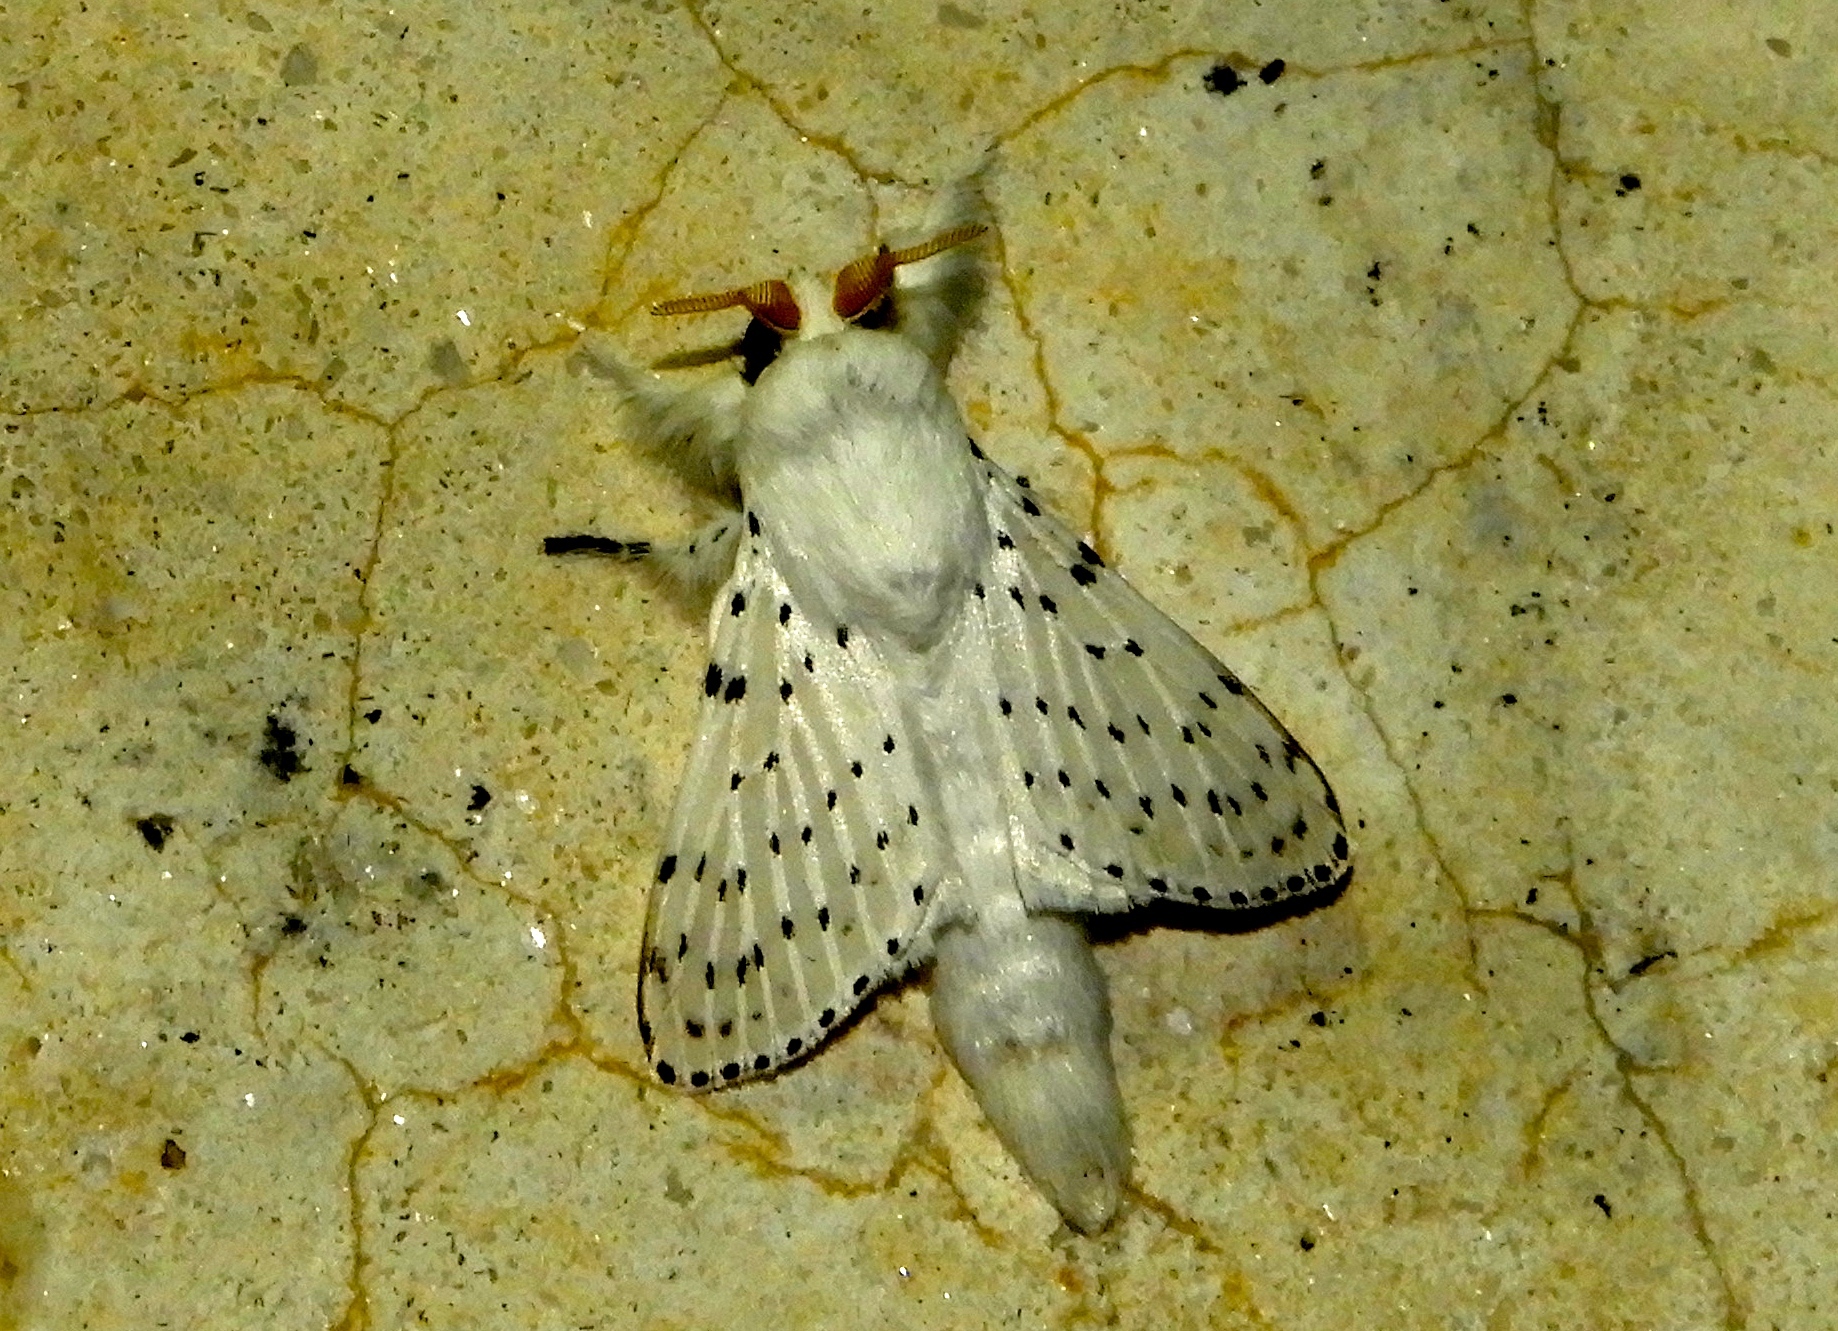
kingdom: Animalia
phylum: Arthropoda
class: Insecta
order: Lepidoptera
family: Lasiocampidae
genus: Artace
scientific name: Artace
